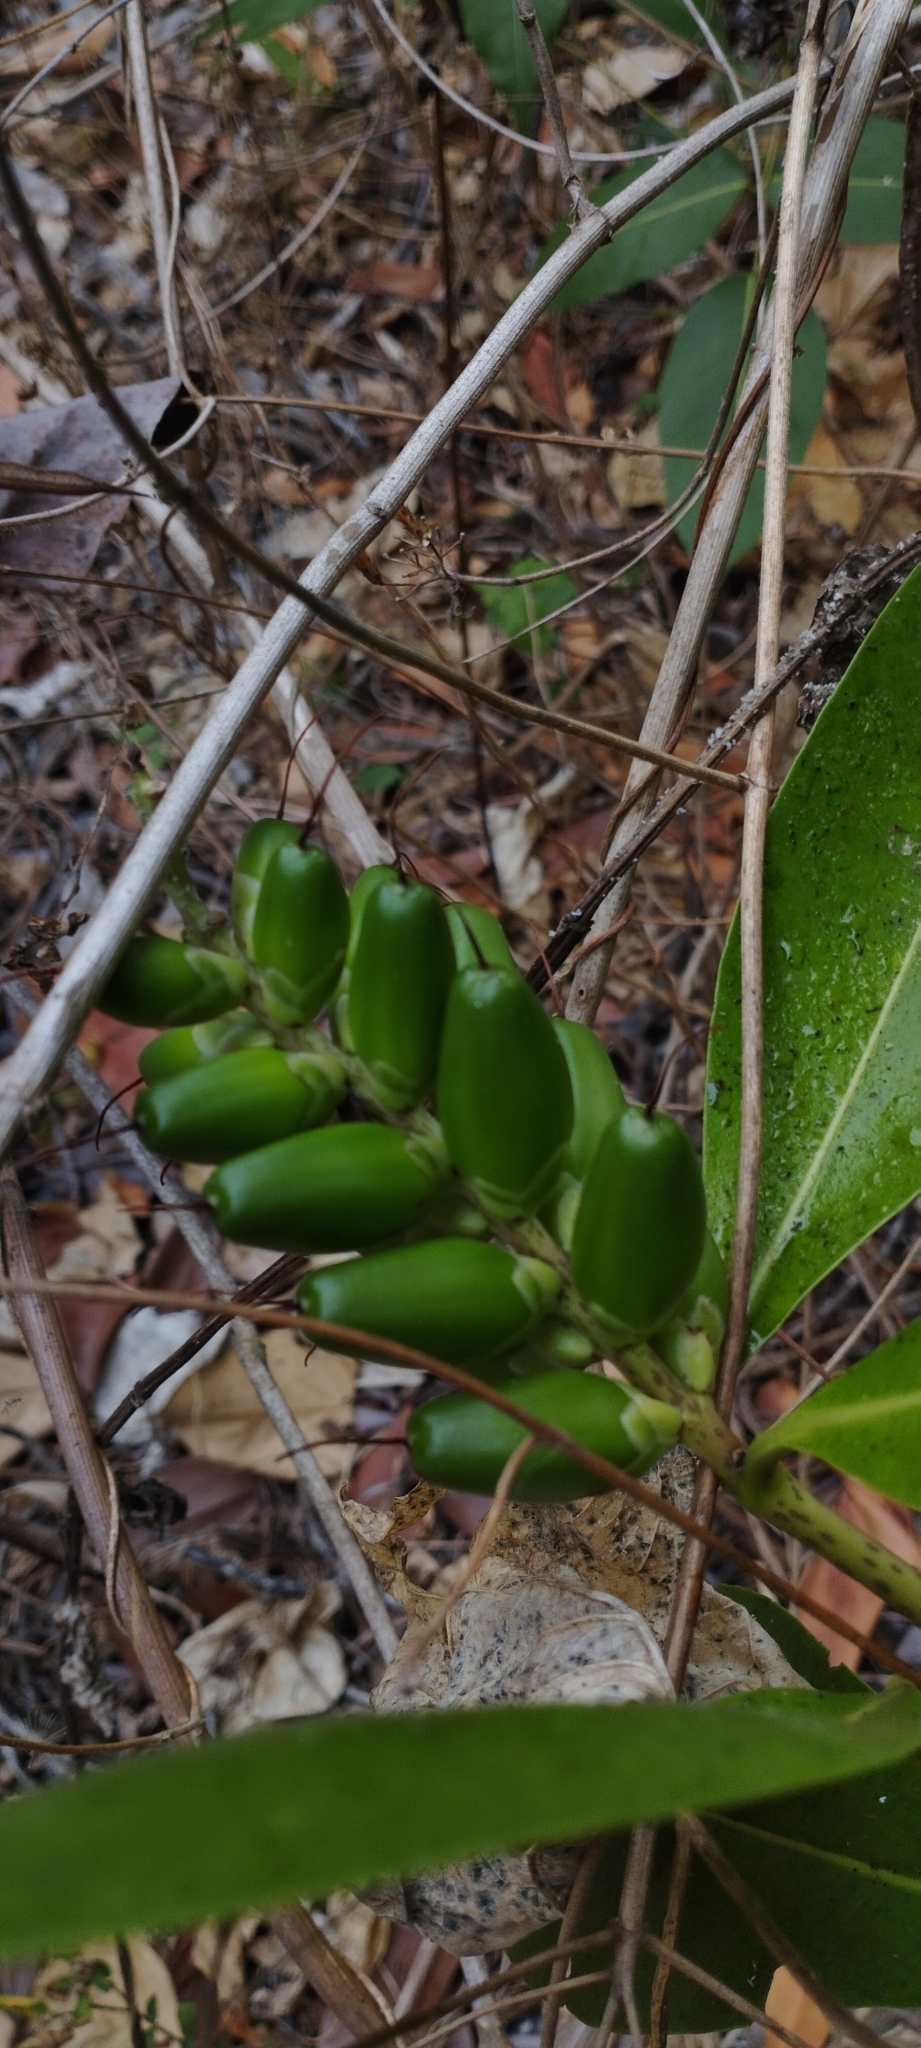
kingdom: Plantae
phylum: Tracheophyta
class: Magnoliopsida
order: Lamiales
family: Acanthaceae
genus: Acanthus
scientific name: Acanthus ilicifolius
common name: Holy mangrove
